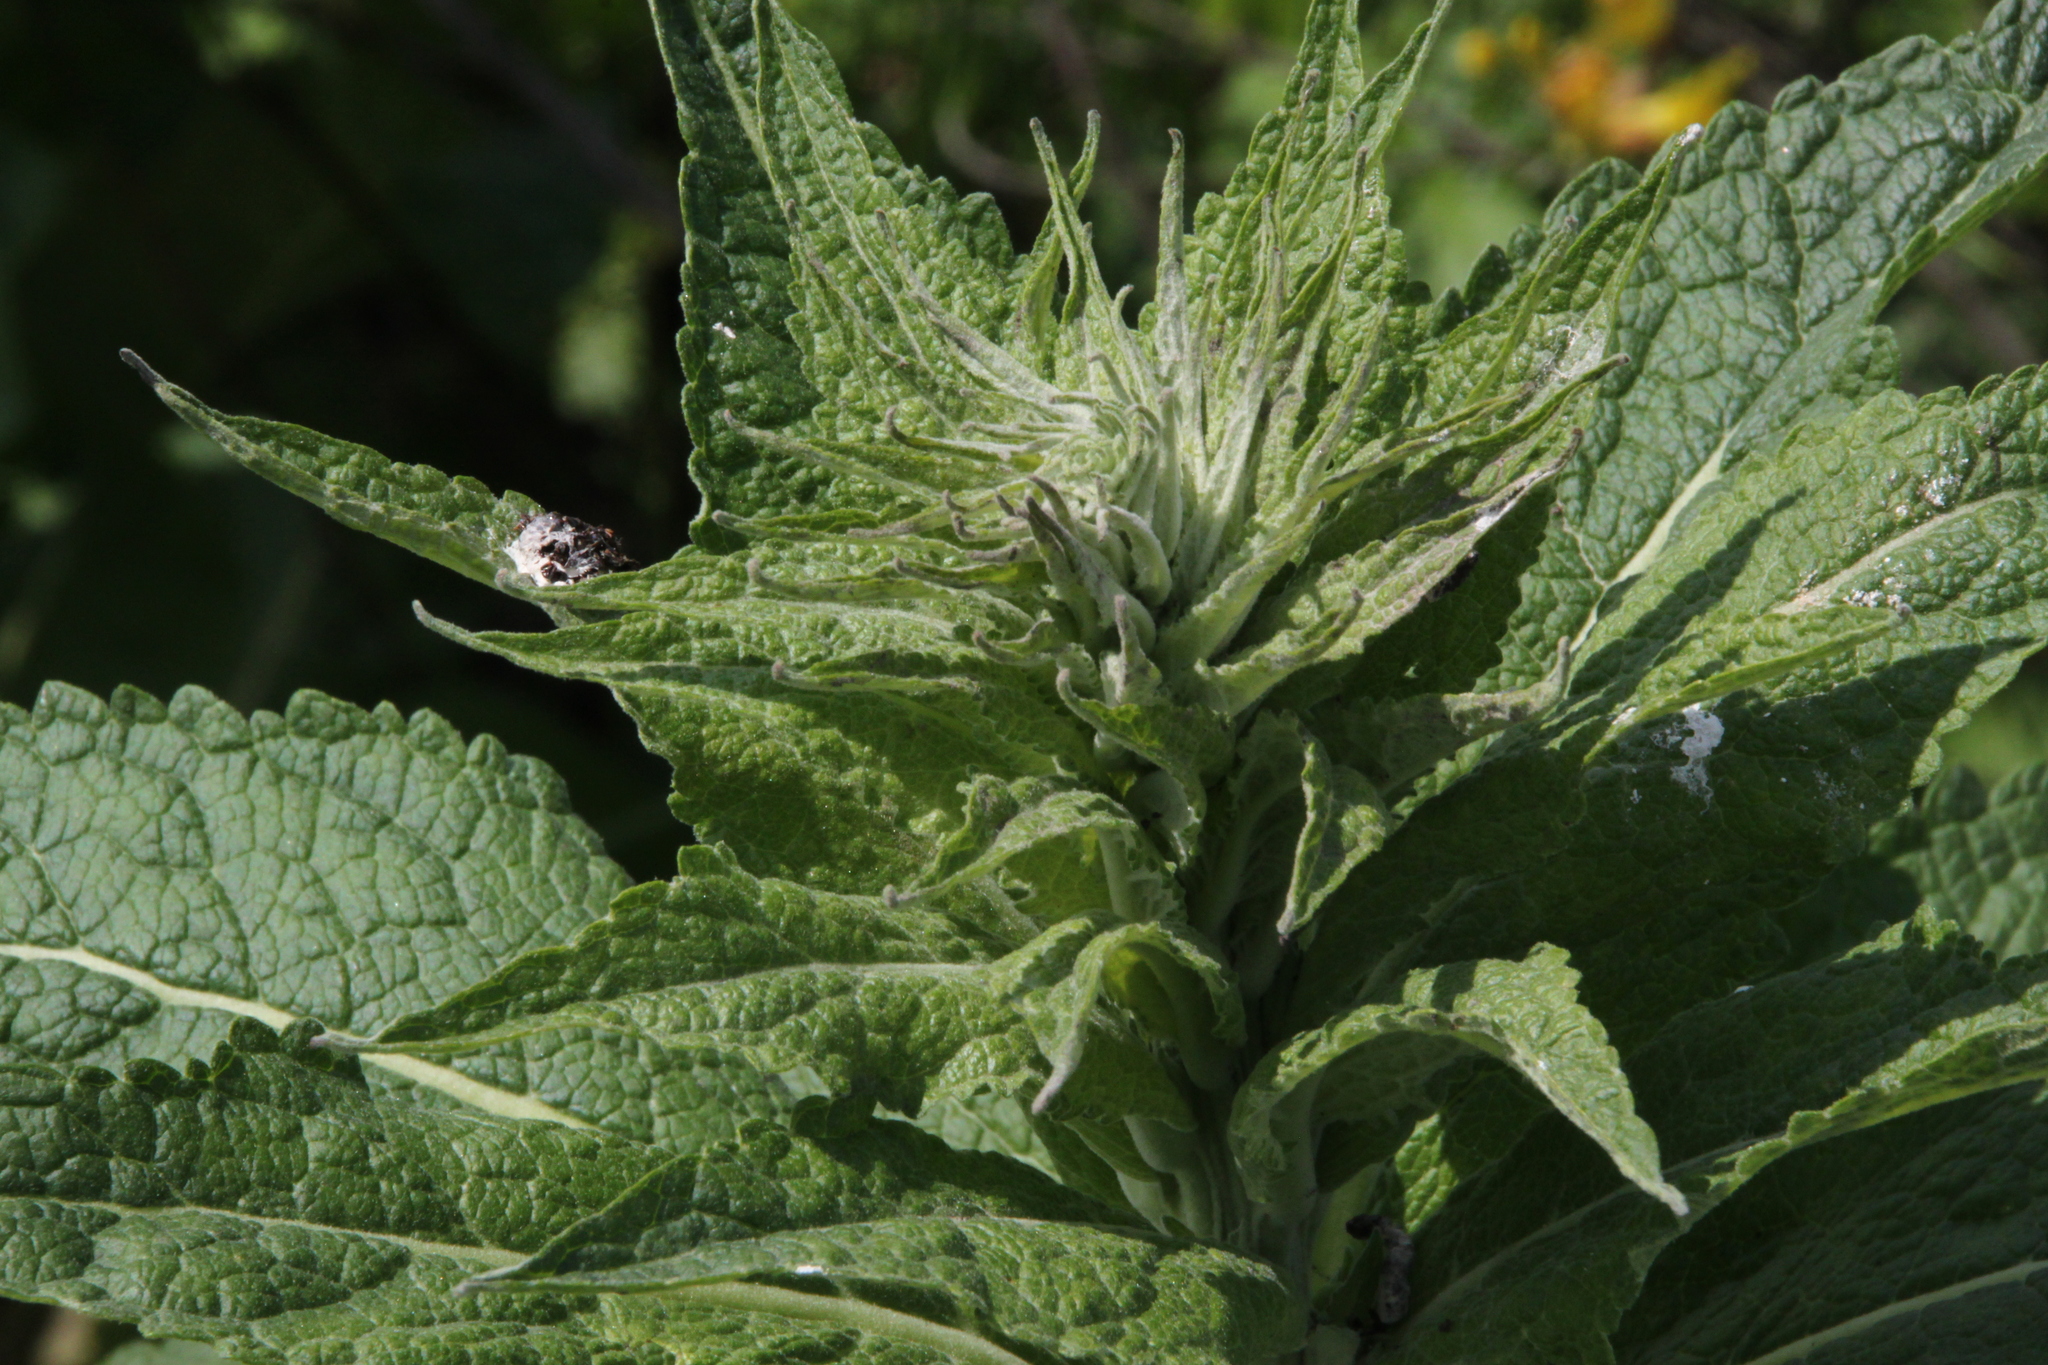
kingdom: Plantae
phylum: Tracheophyta
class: Magnoliopsida
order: Lamiales
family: Scrophulariaceae
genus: Verbascum
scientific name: Verbascum lychnitis
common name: White mullein
